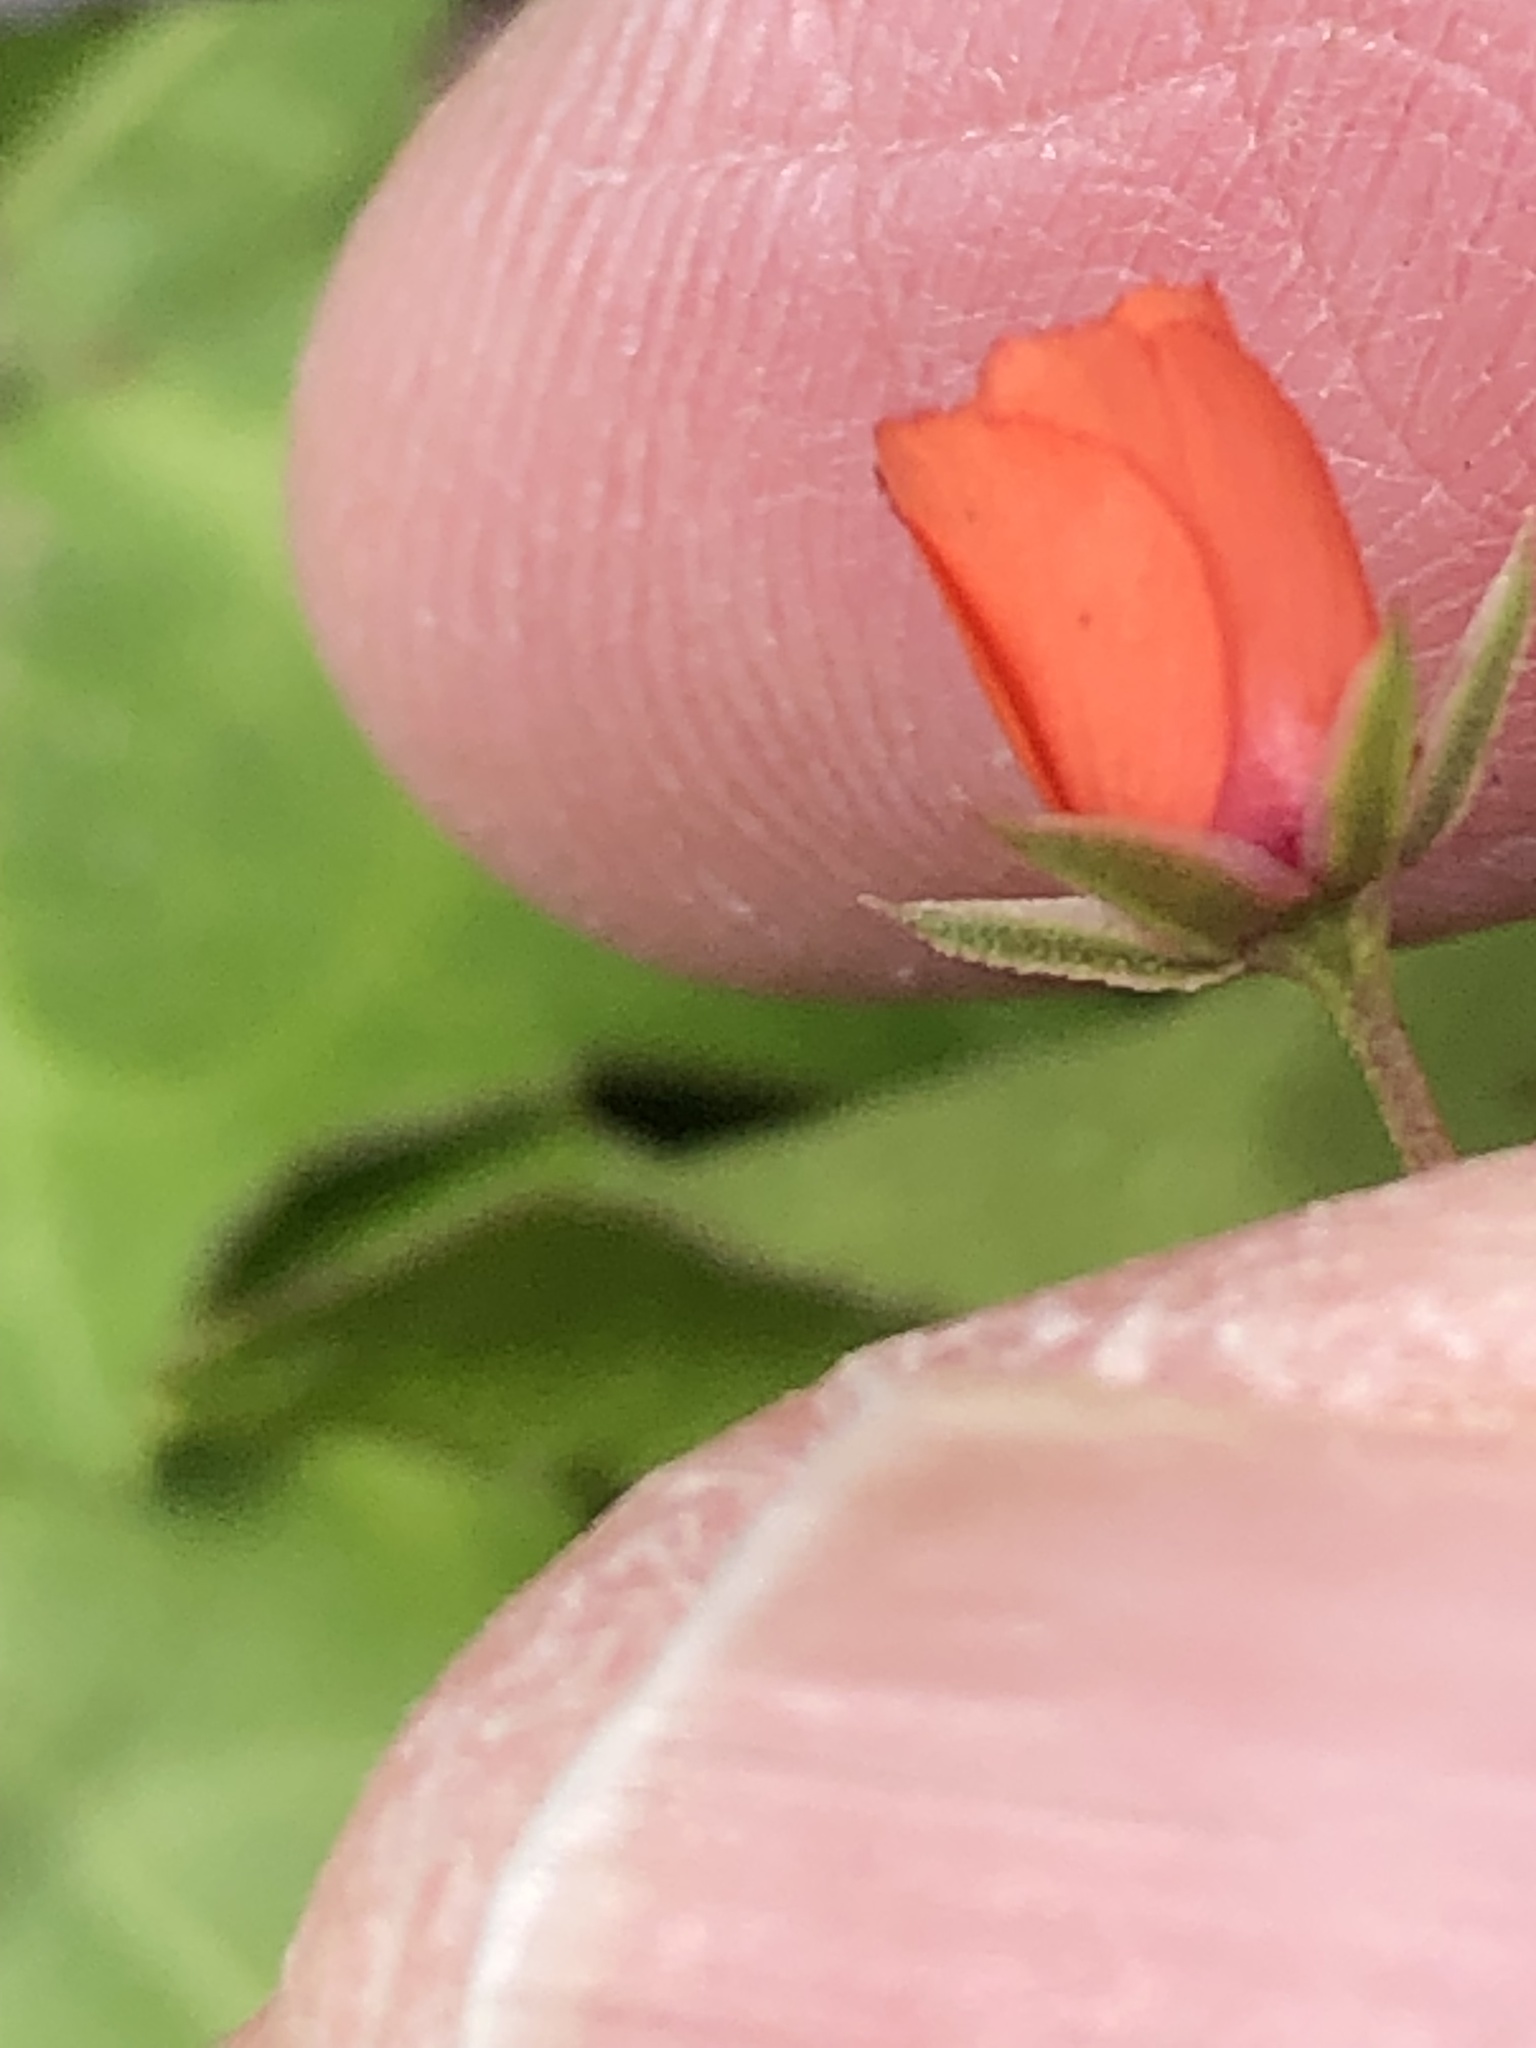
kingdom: Plantae
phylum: Tracheophyta
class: Magnoliopsida
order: Ericales
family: Primulaceae
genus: Lysimachia
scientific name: Lysimachia arvensis
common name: Scarlet pimpernel
